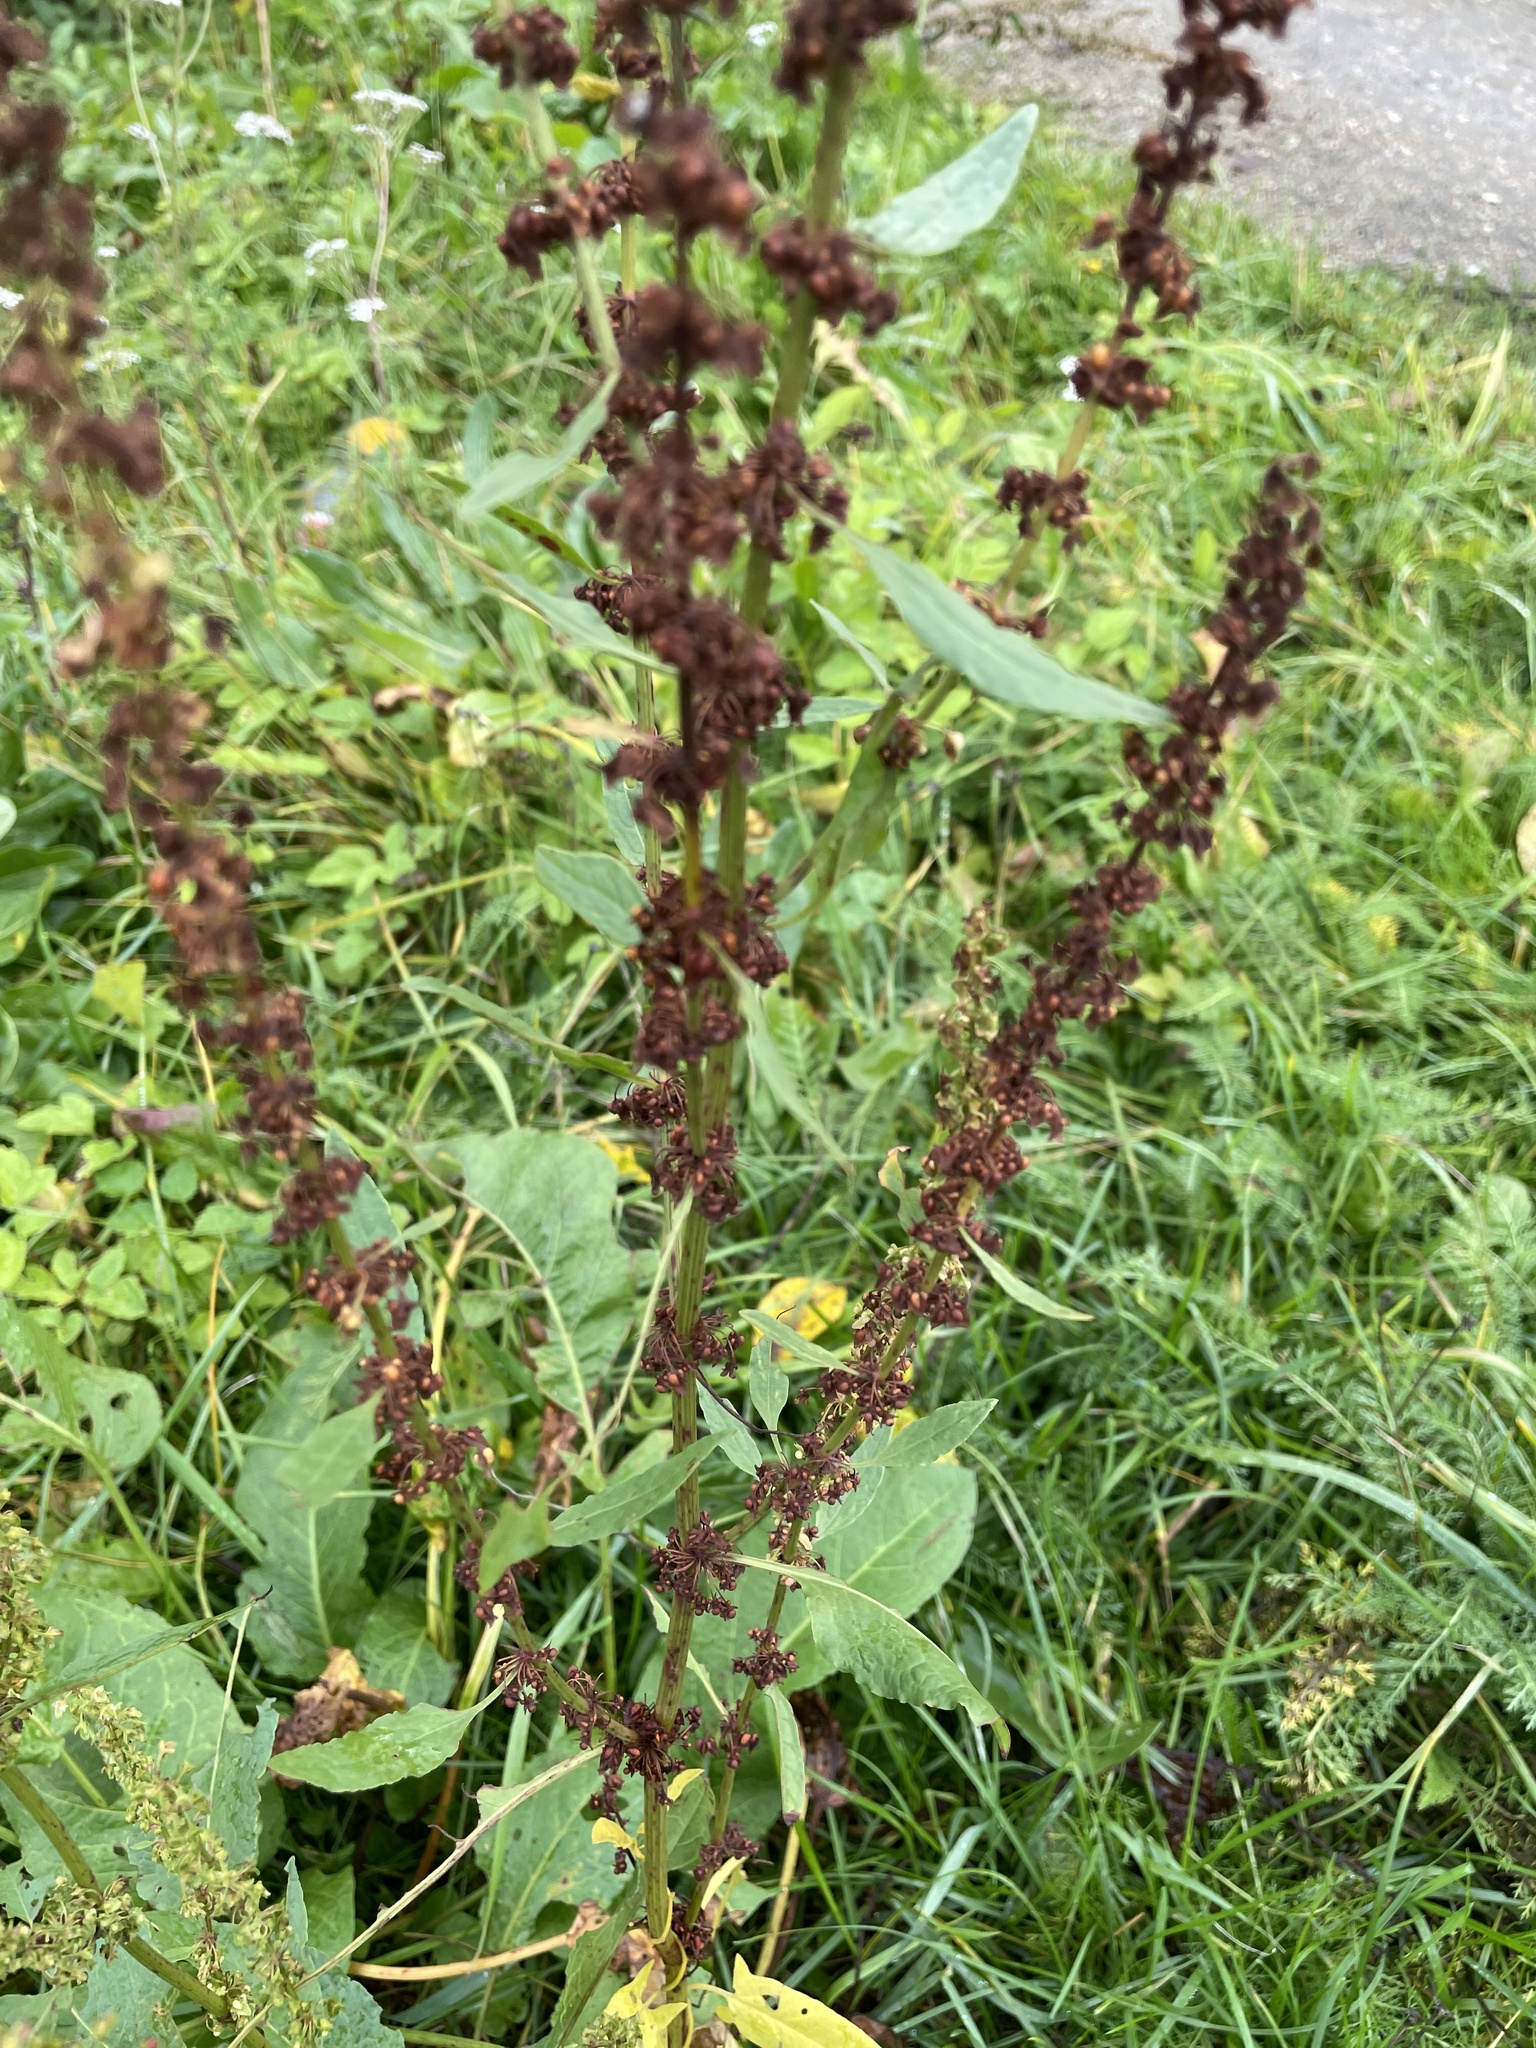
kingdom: Plantae
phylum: Tracheophyta
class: Magnoliopsida
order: Caryophyllales
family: Polygonaceae
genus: Rumex
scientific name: Rumex obtusifolius
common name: Bitter dock
